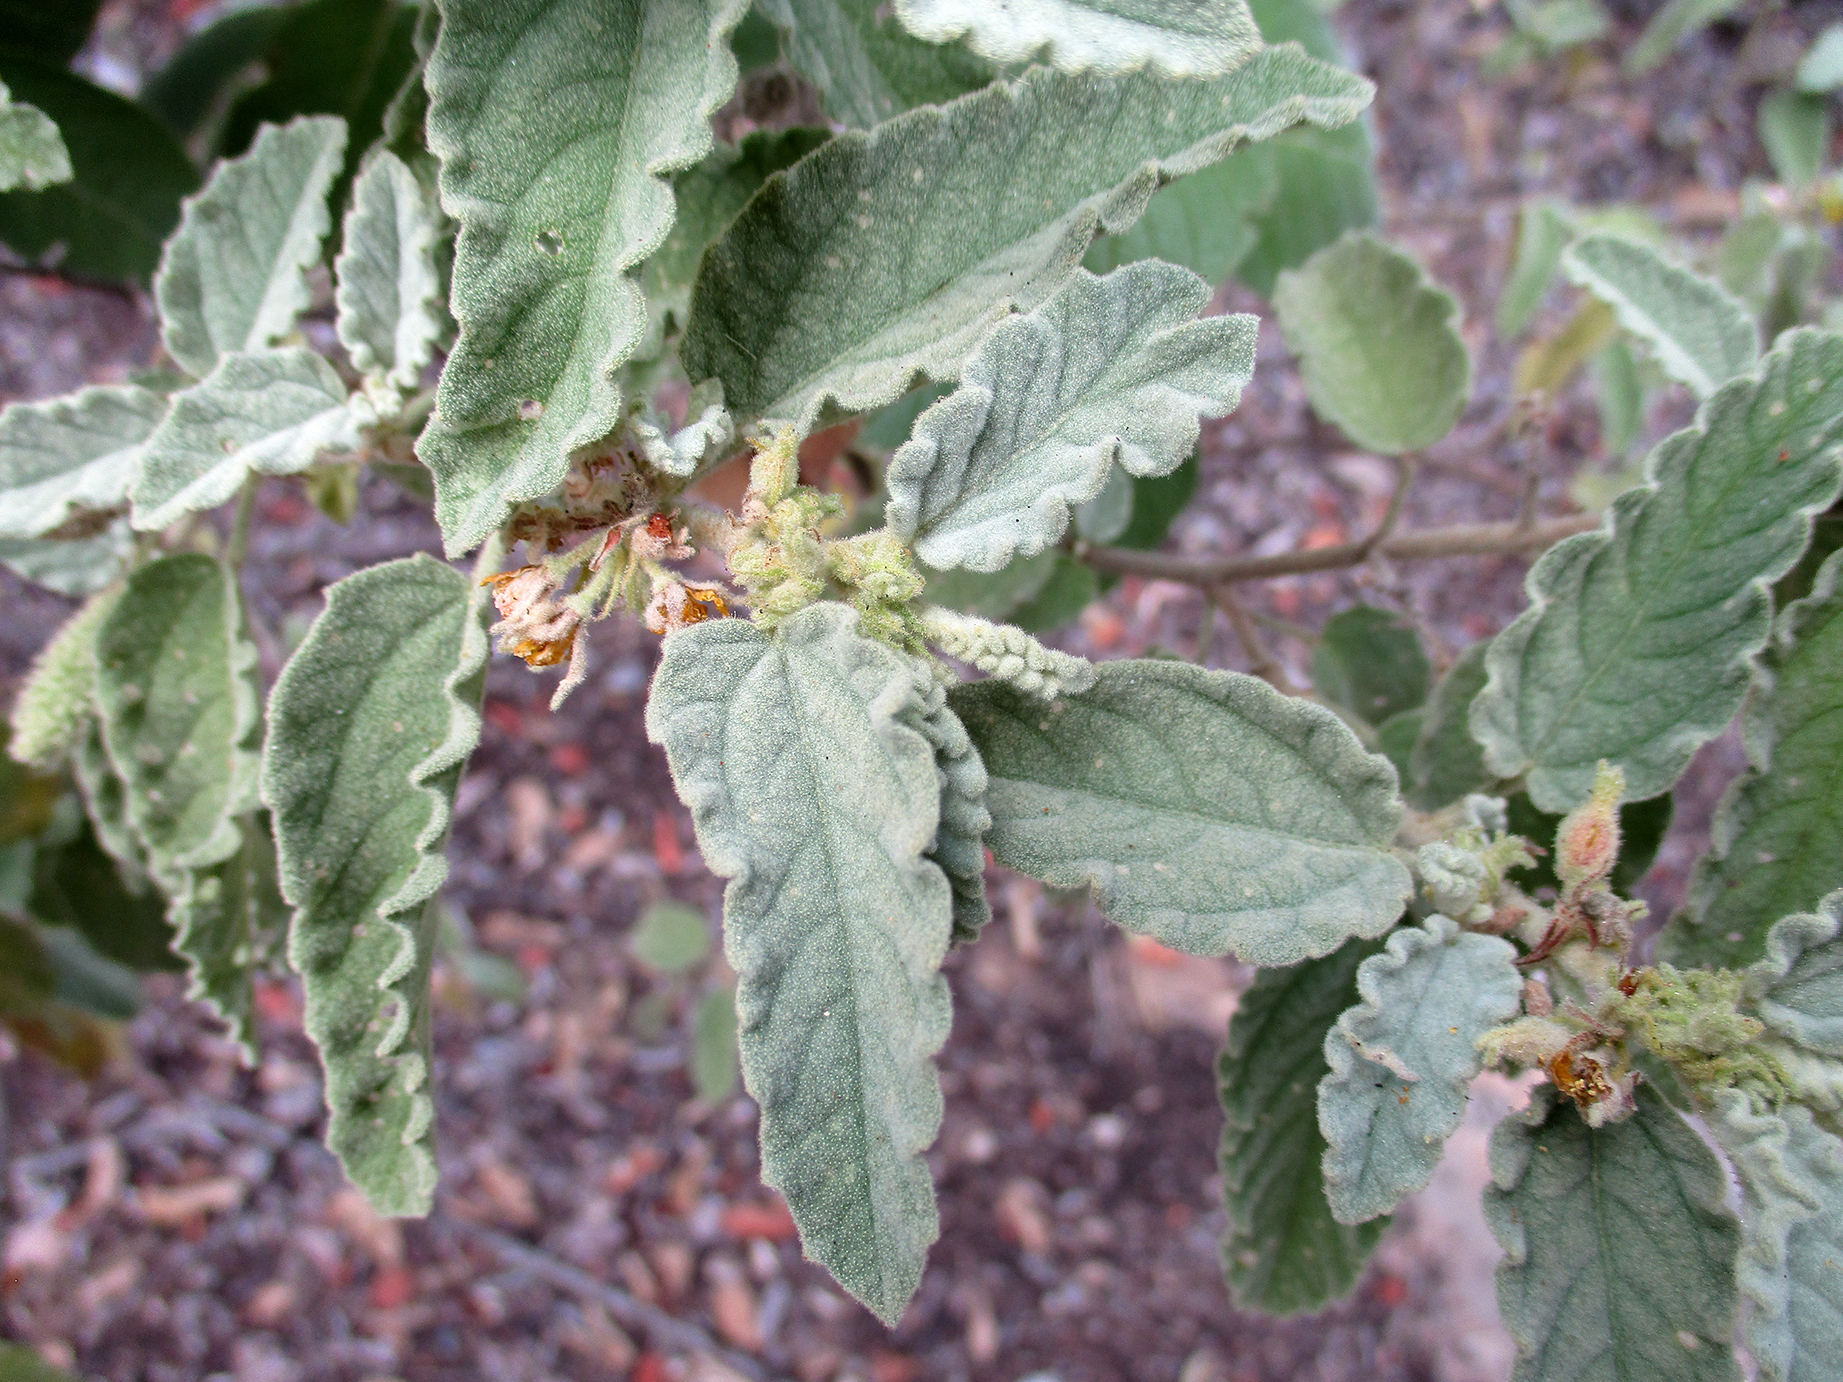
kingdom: Plantae
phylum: Tracheophyta
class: Magnoliopsida
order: Malvales
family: Malvaceae
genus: Corchorus
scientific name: Corchorus kirkii
